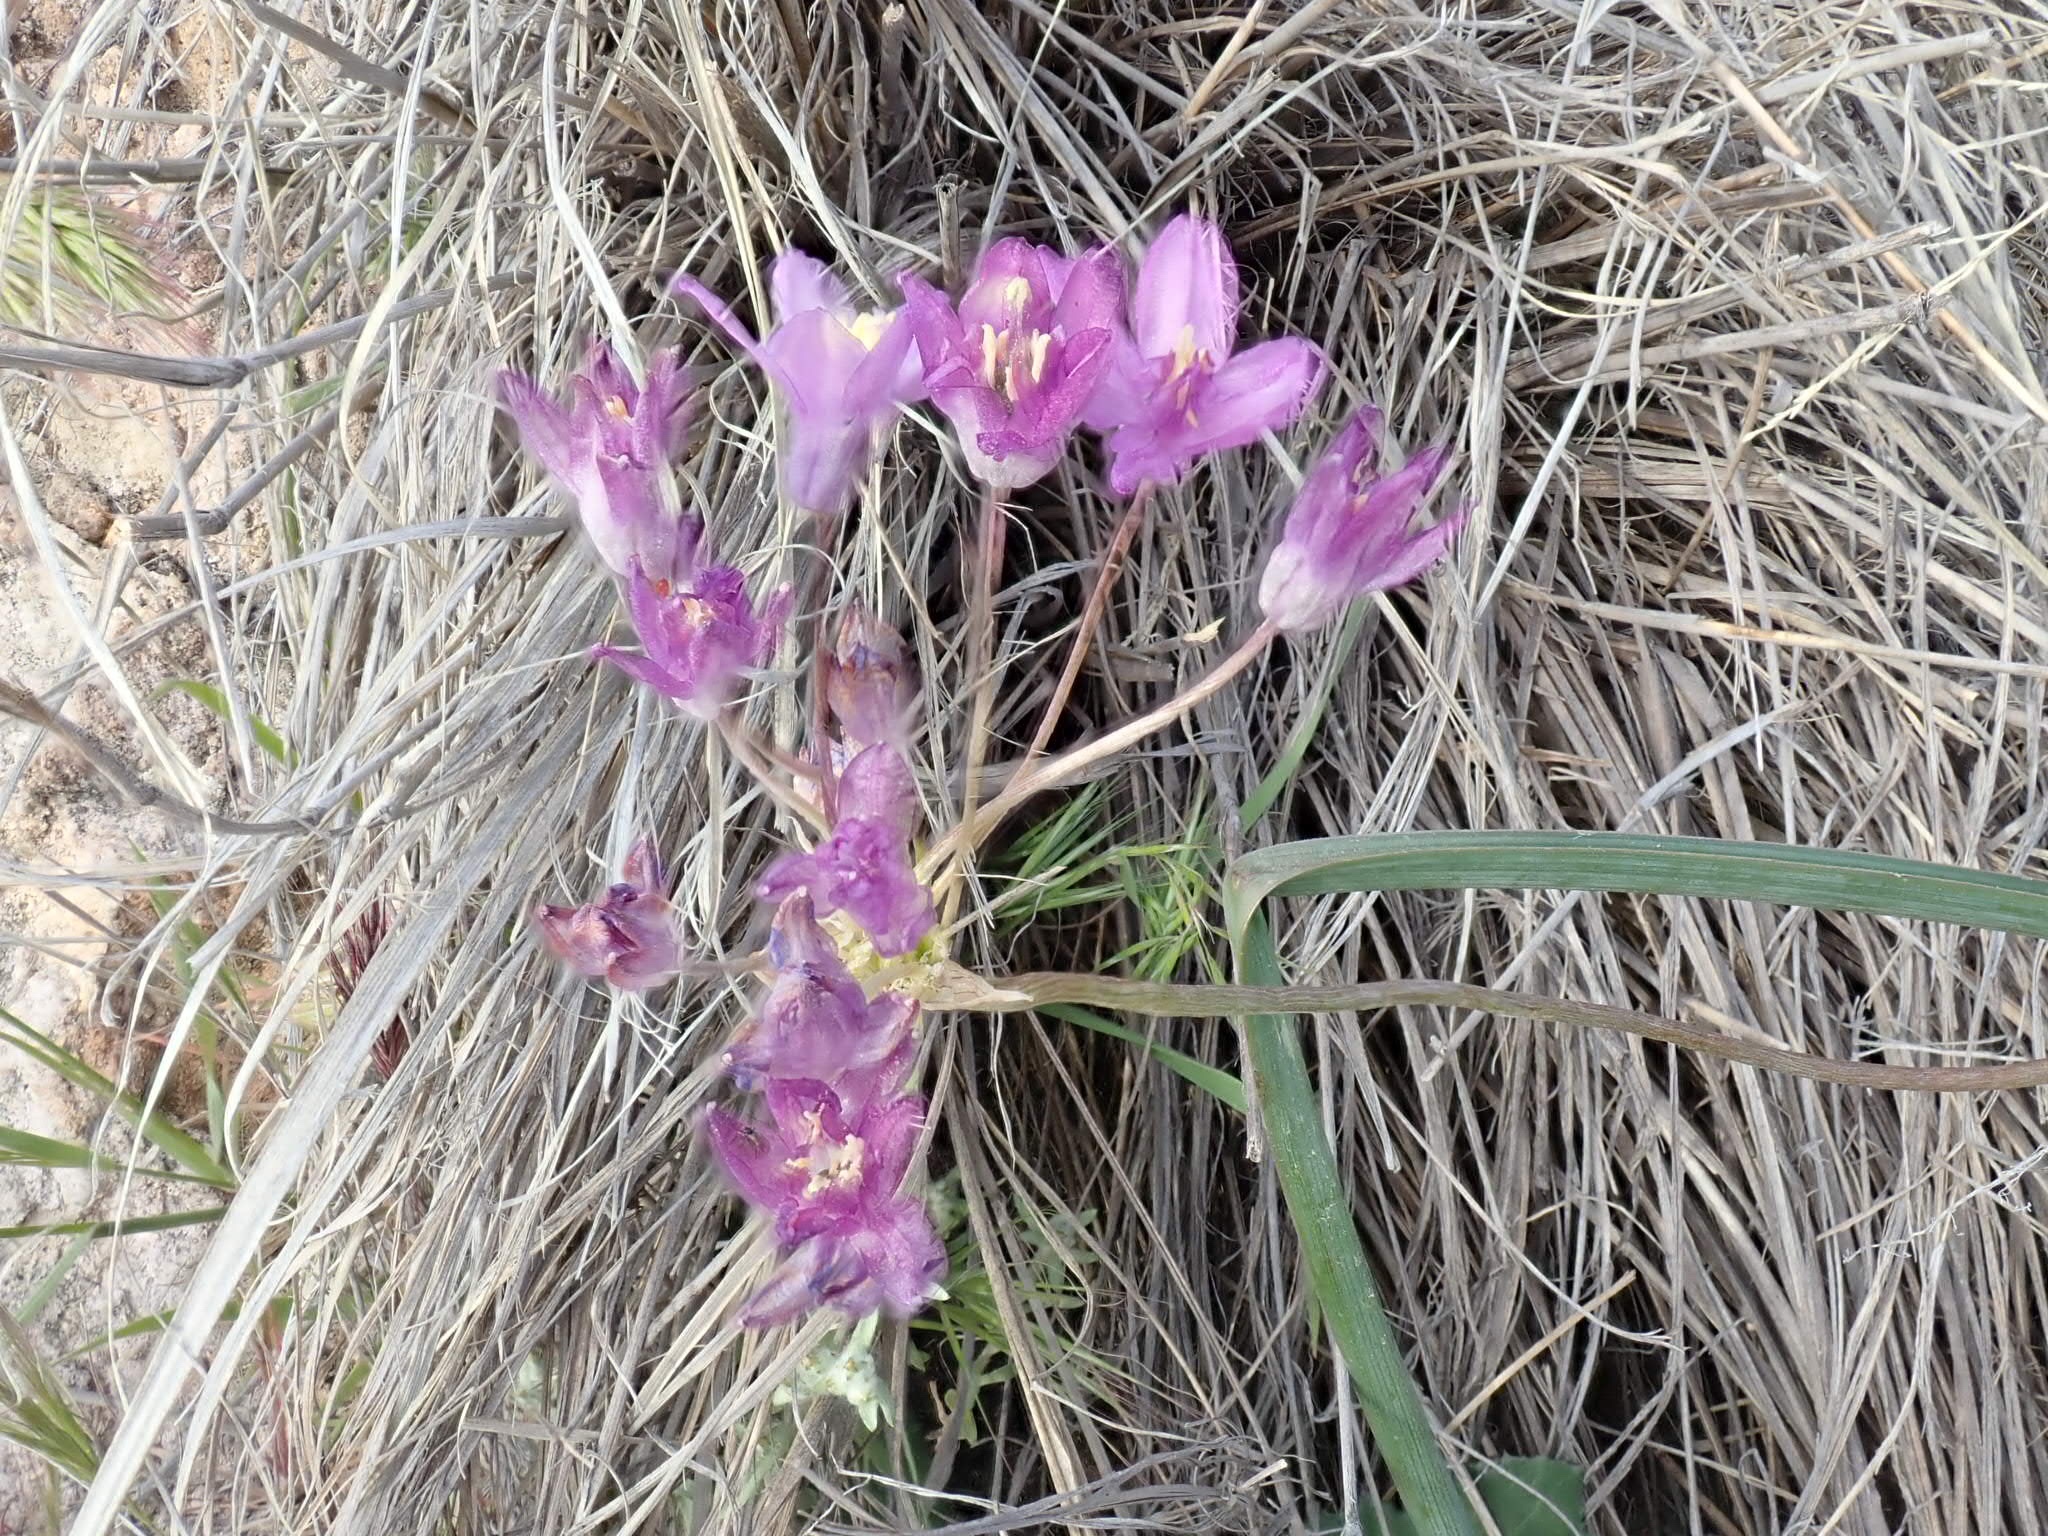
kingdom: Plantae
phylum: Tracheophyta
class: Liliopsida
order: Asparagales
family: Asparagaceae
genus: Dipterostemon
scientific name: Dipterostemon capitatus
